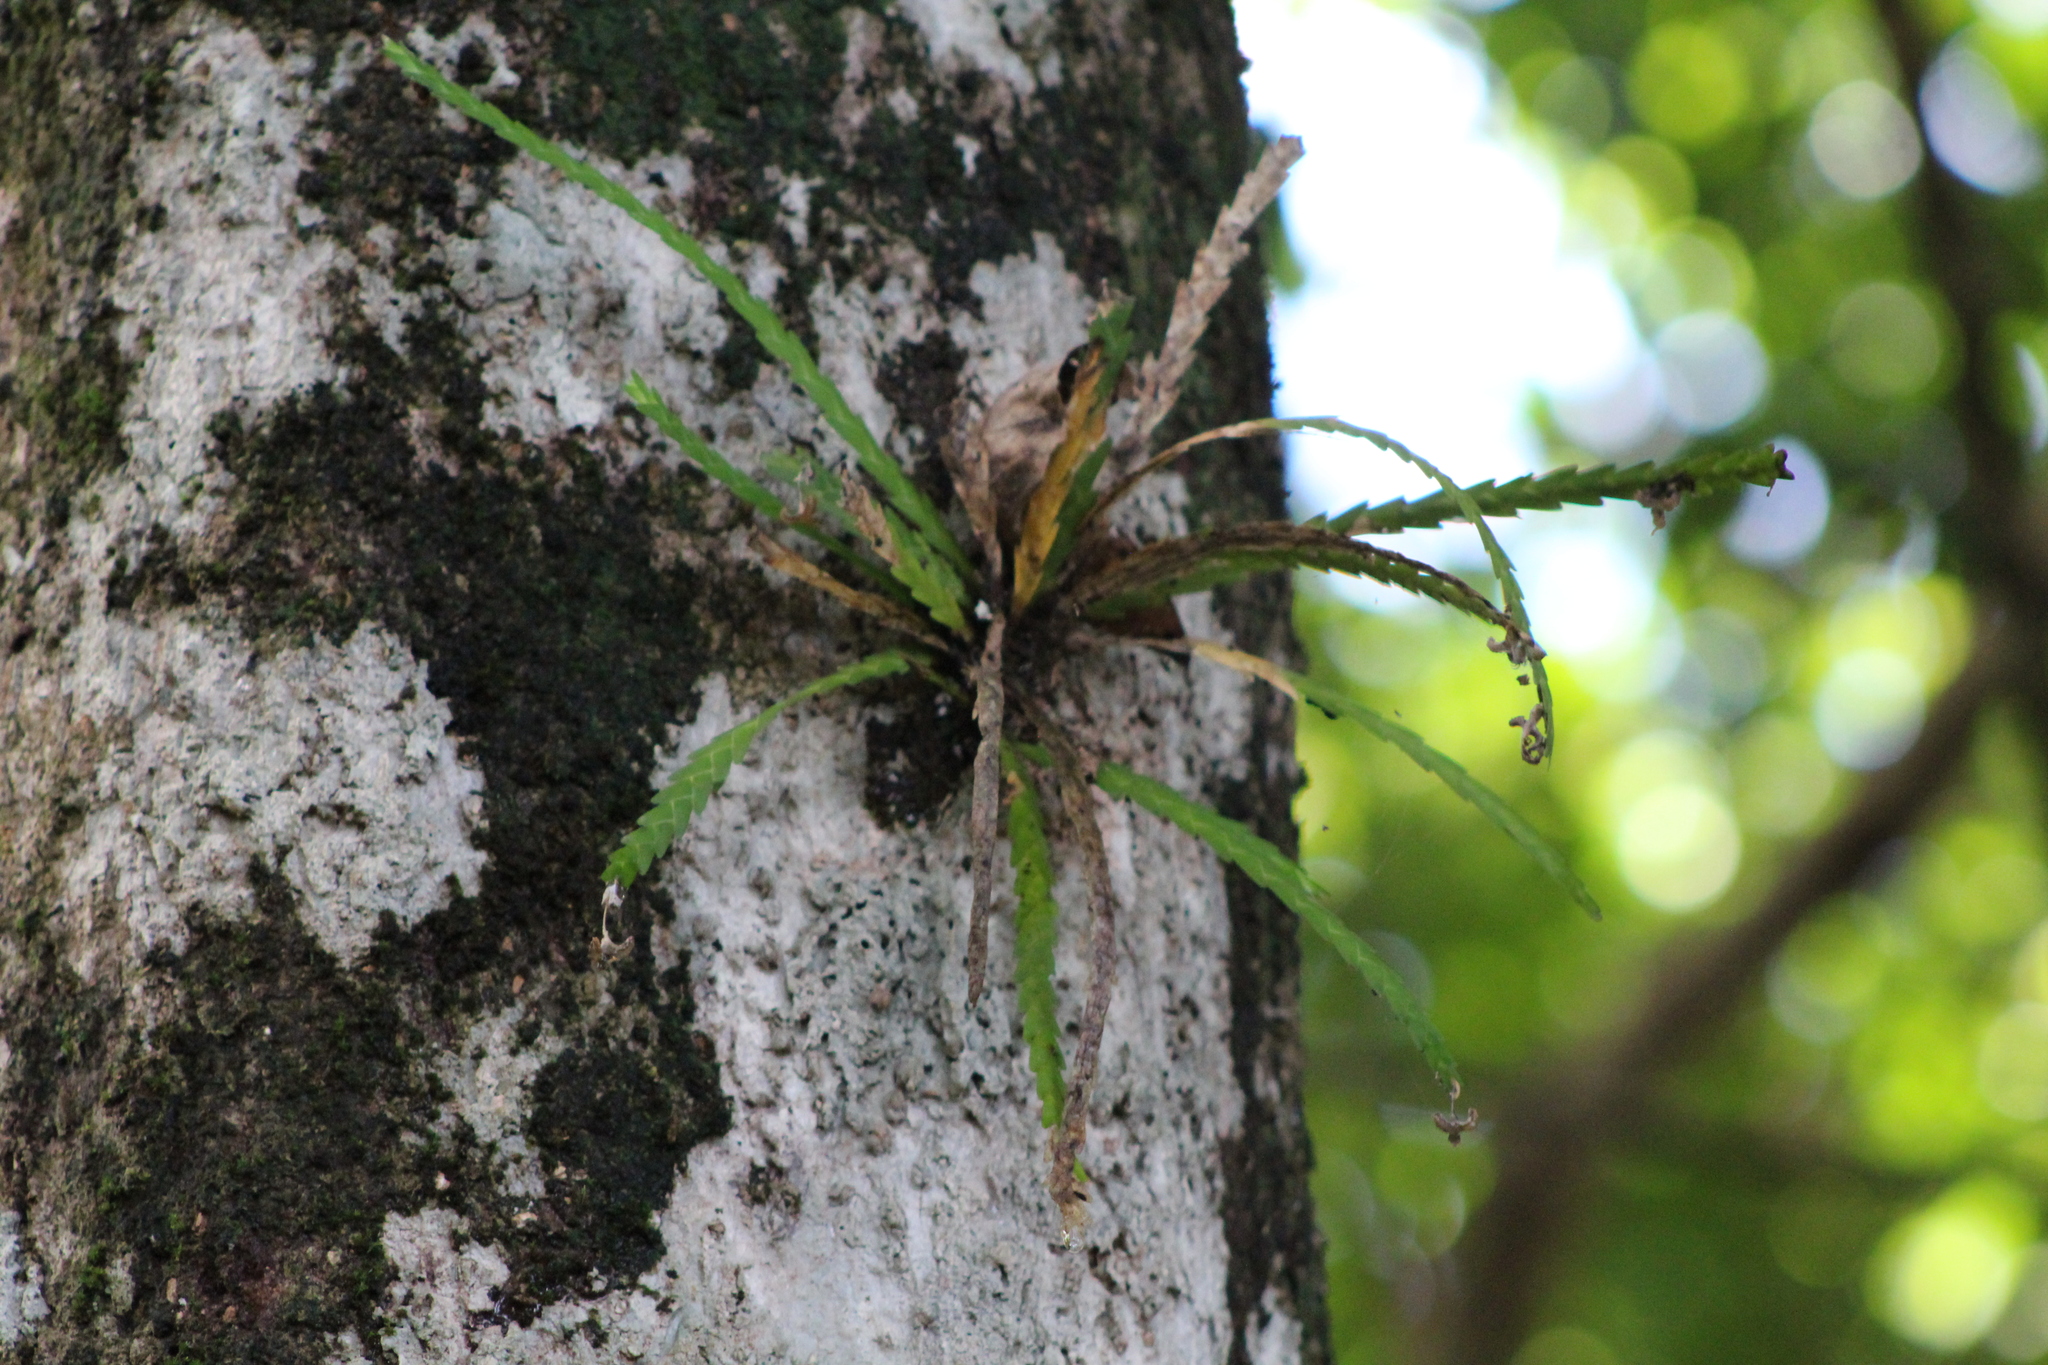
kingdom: Plantae
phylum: Tracheophyta
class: Liliopsida
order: Asparagales
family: Orchidaceae
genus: Lockhartia
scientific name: Lockhartia micrantha
